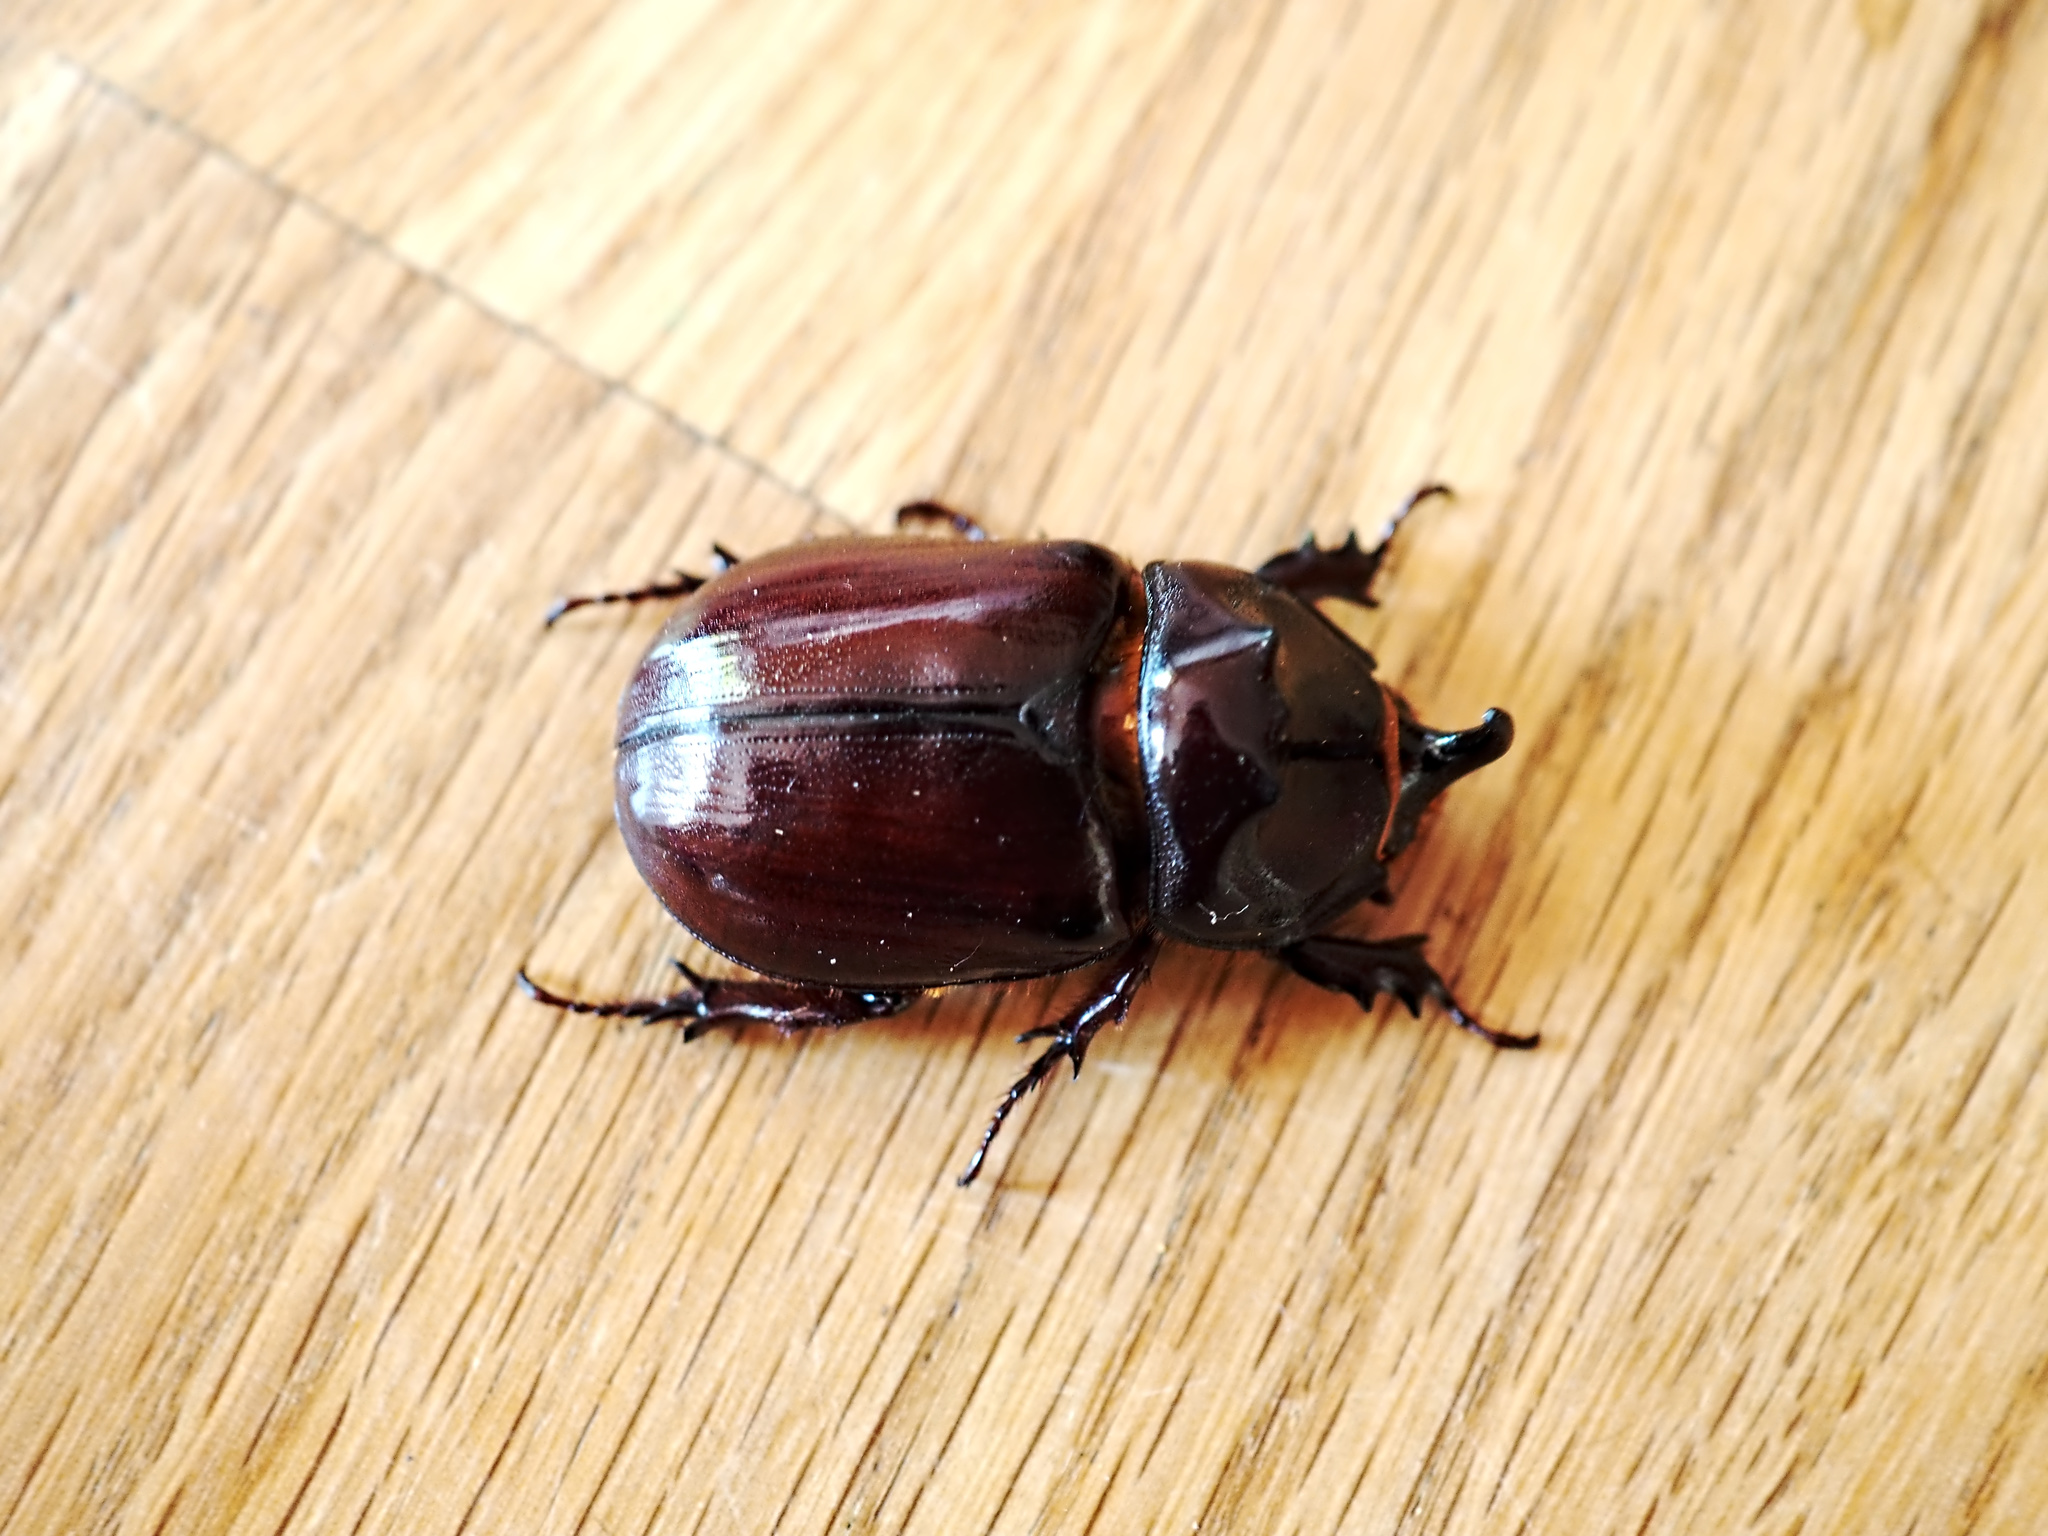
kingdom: Animalia
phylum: Arthropoda
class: Insecta
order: Coleoptera
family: Scarabaeidae
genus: Oryctes
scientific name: Oryctes nasicornis
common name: European rhinoceros beetle
